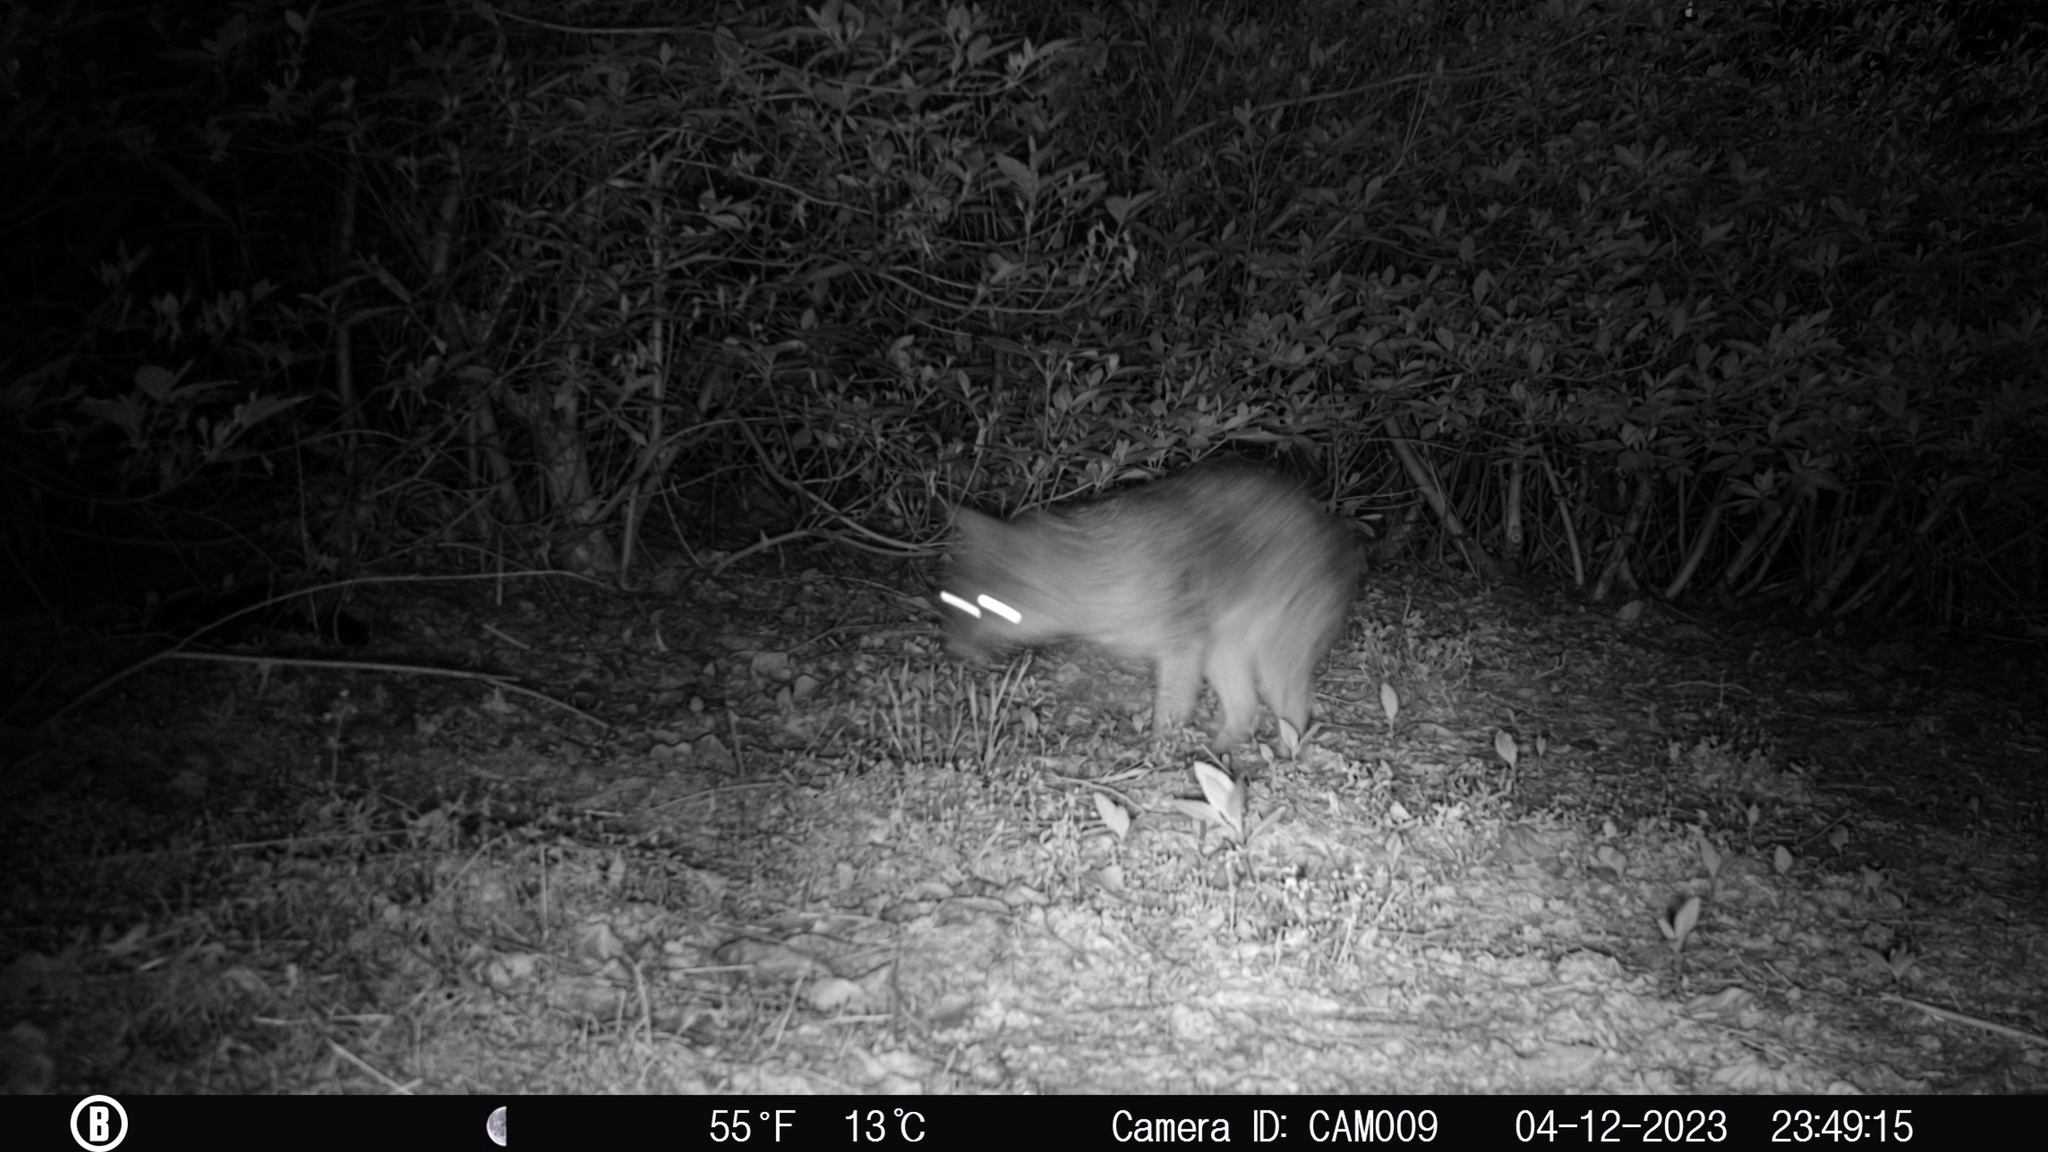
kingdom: Animalia
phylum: Chordata
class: Mammalia
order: Carnivora
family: Canidae
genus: Urocyon
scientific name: Urocyon cinereoargenteus
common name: Gray fox
